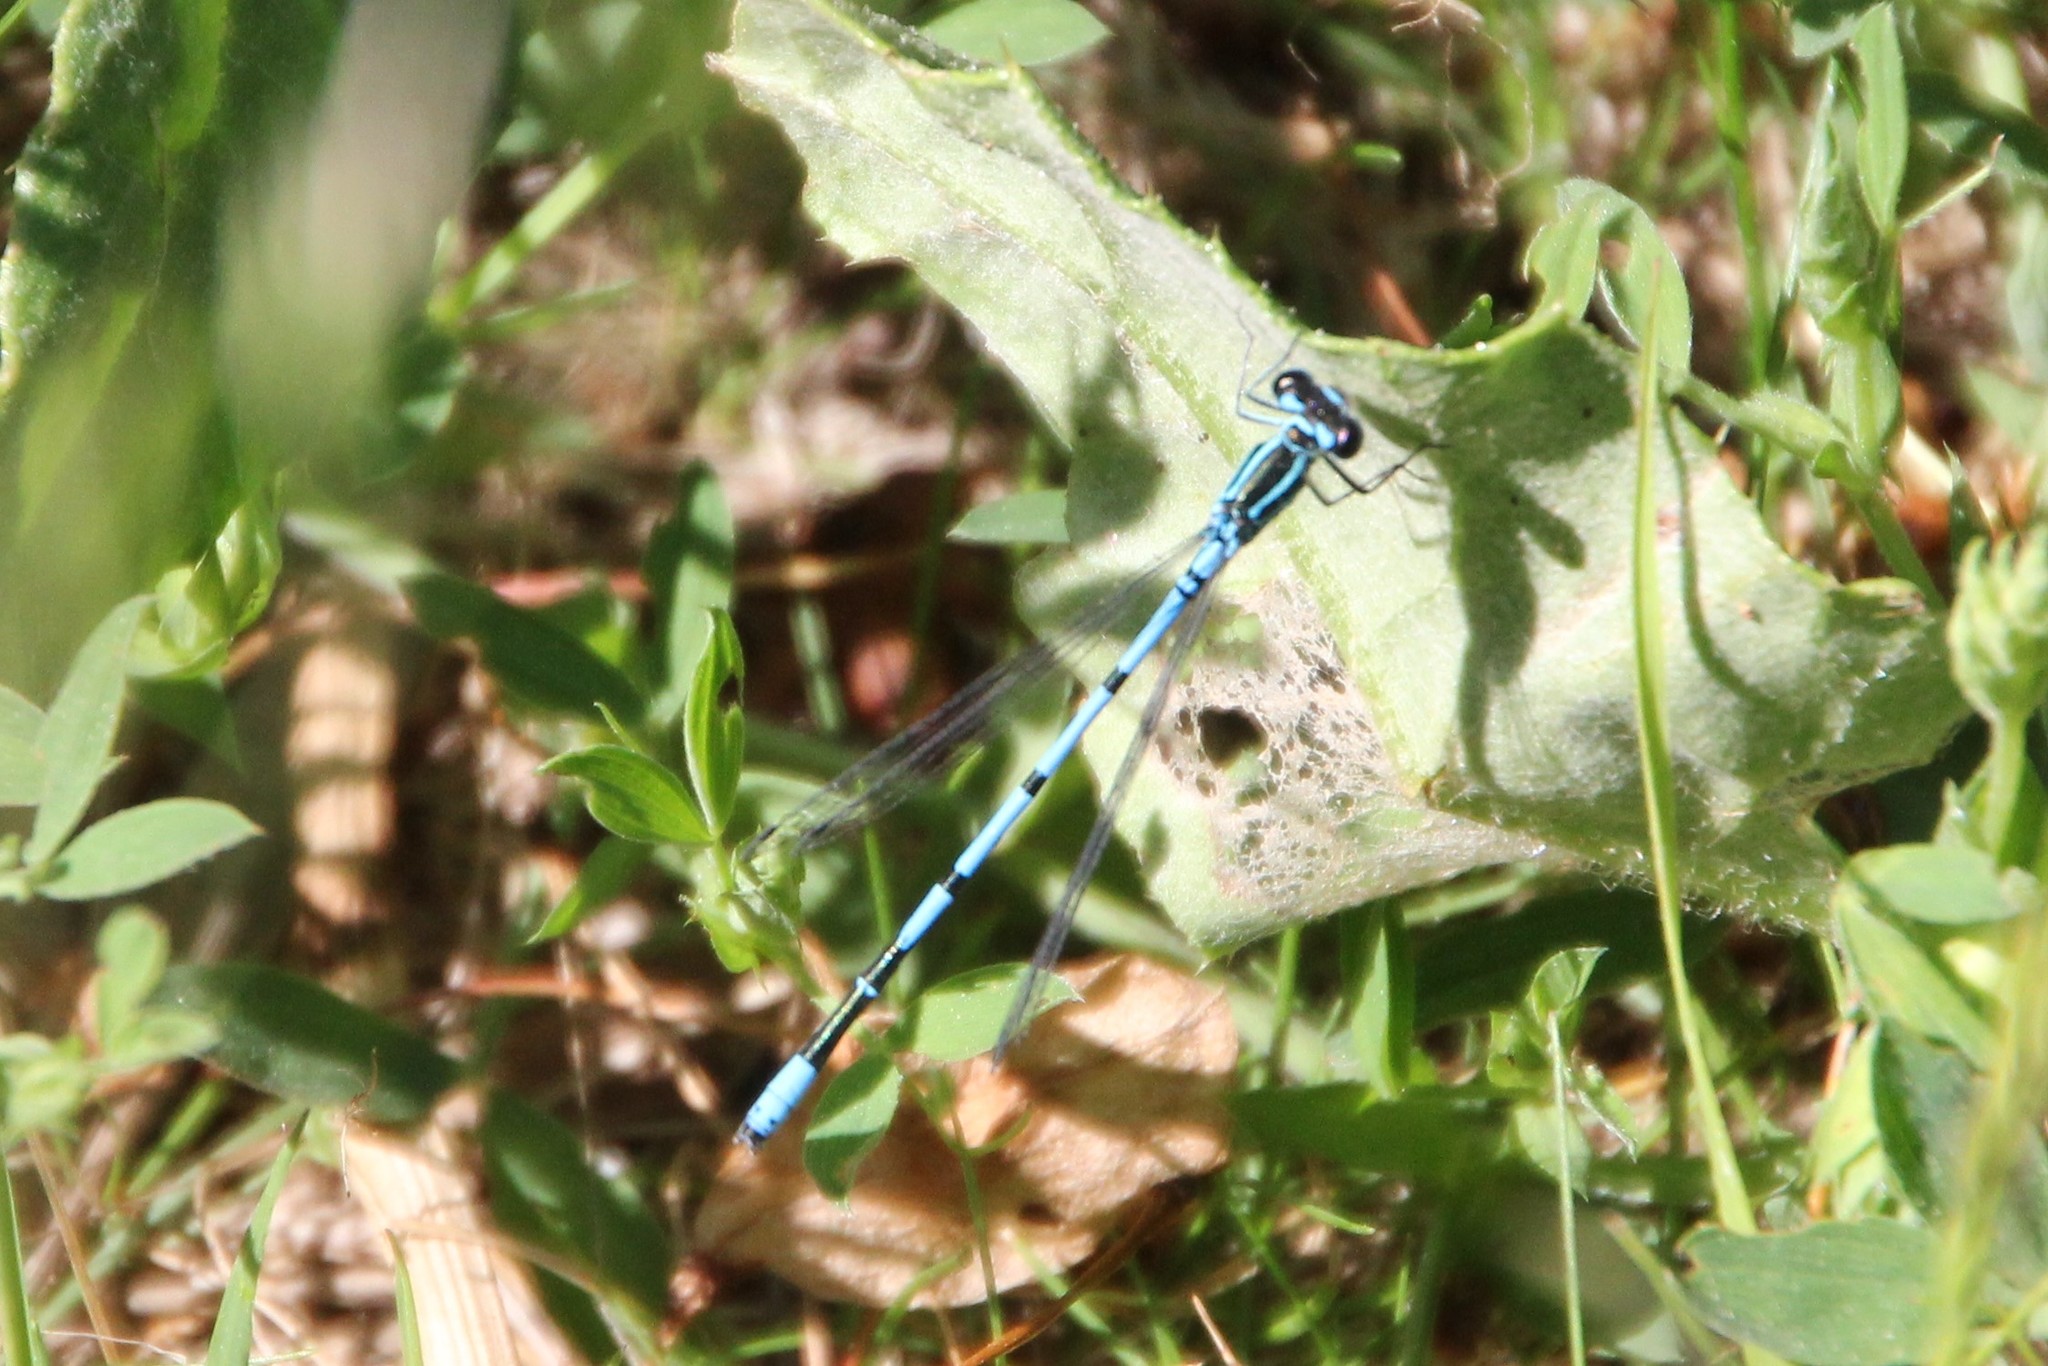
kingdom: Animalia
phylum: Arthropoda
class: Insecta
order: Odonata
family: Coenagrionidae
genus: Coenagrion
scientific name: Coenagrion puella
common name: Azure damselfly
